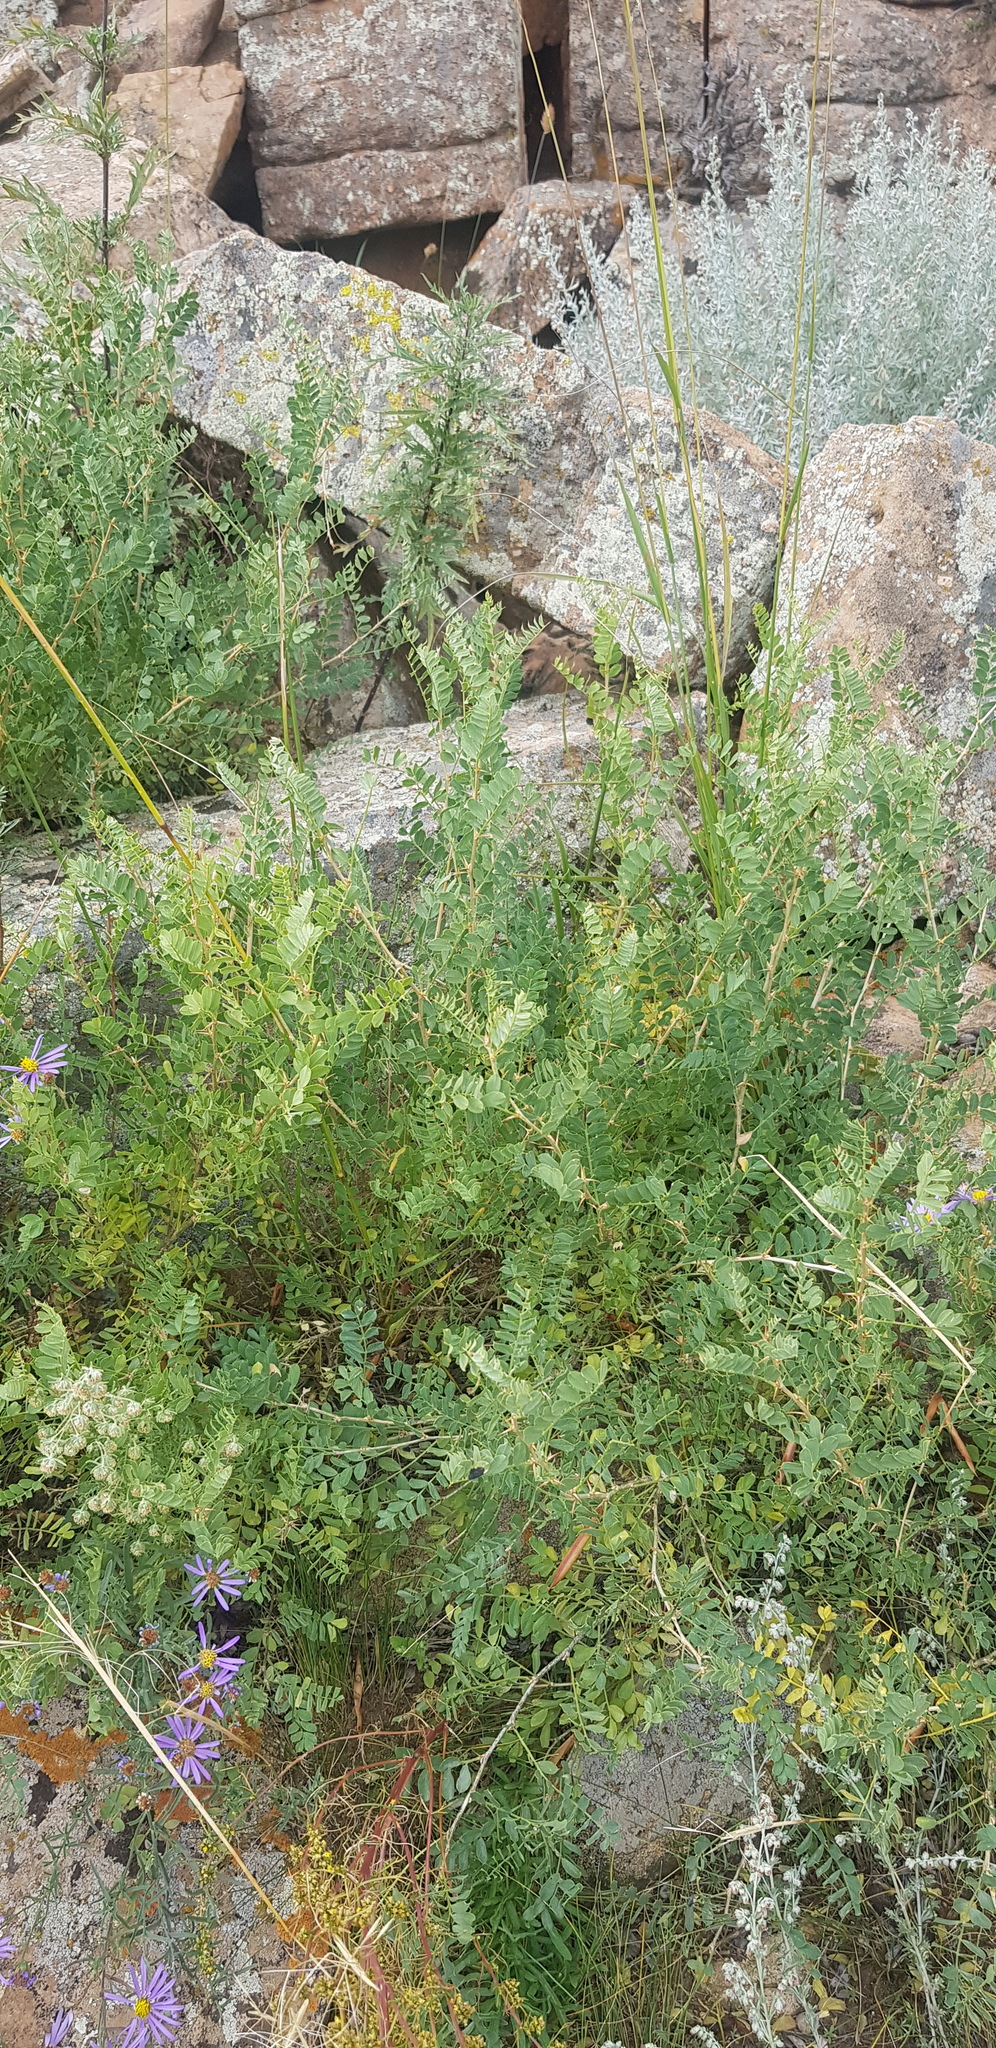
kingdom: Plantae
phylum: Tracheophyta
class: Magnoliopsida
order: Fabales
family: Fabaceae
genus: Caragana
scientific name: Caragana microphylla
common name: Littleleaf peashrub
